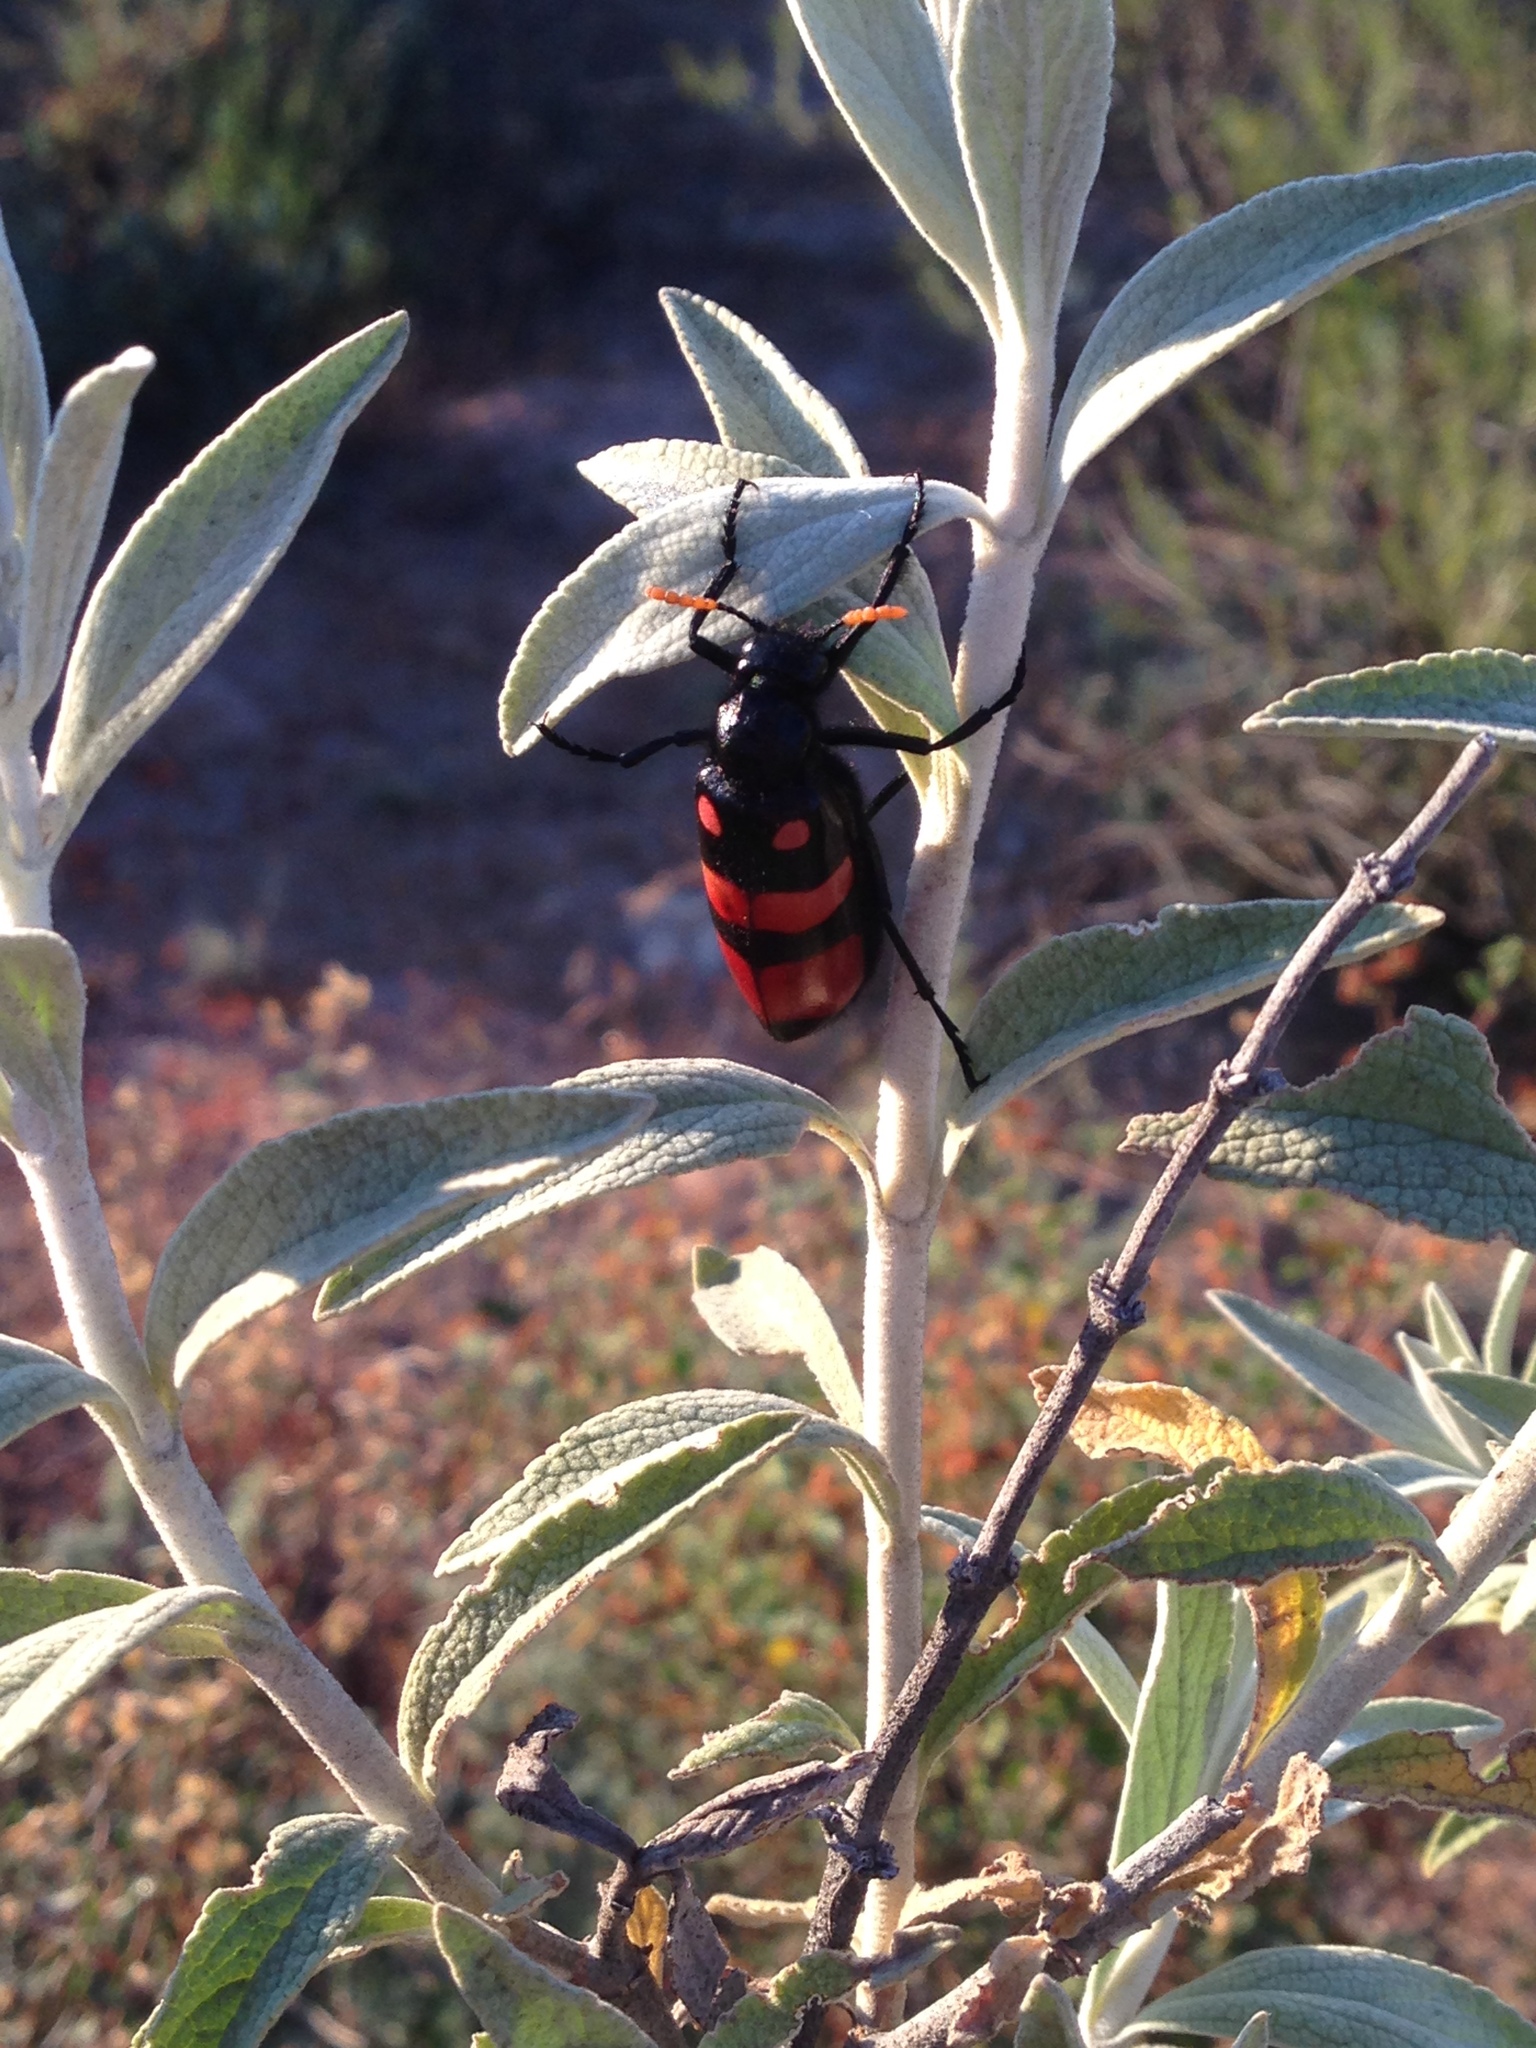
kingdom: Animalia
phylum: Arthropoda
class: Insecta
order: Coleoptera
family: Meloidae
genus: Hycleus
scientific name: Hycleus haemactus
